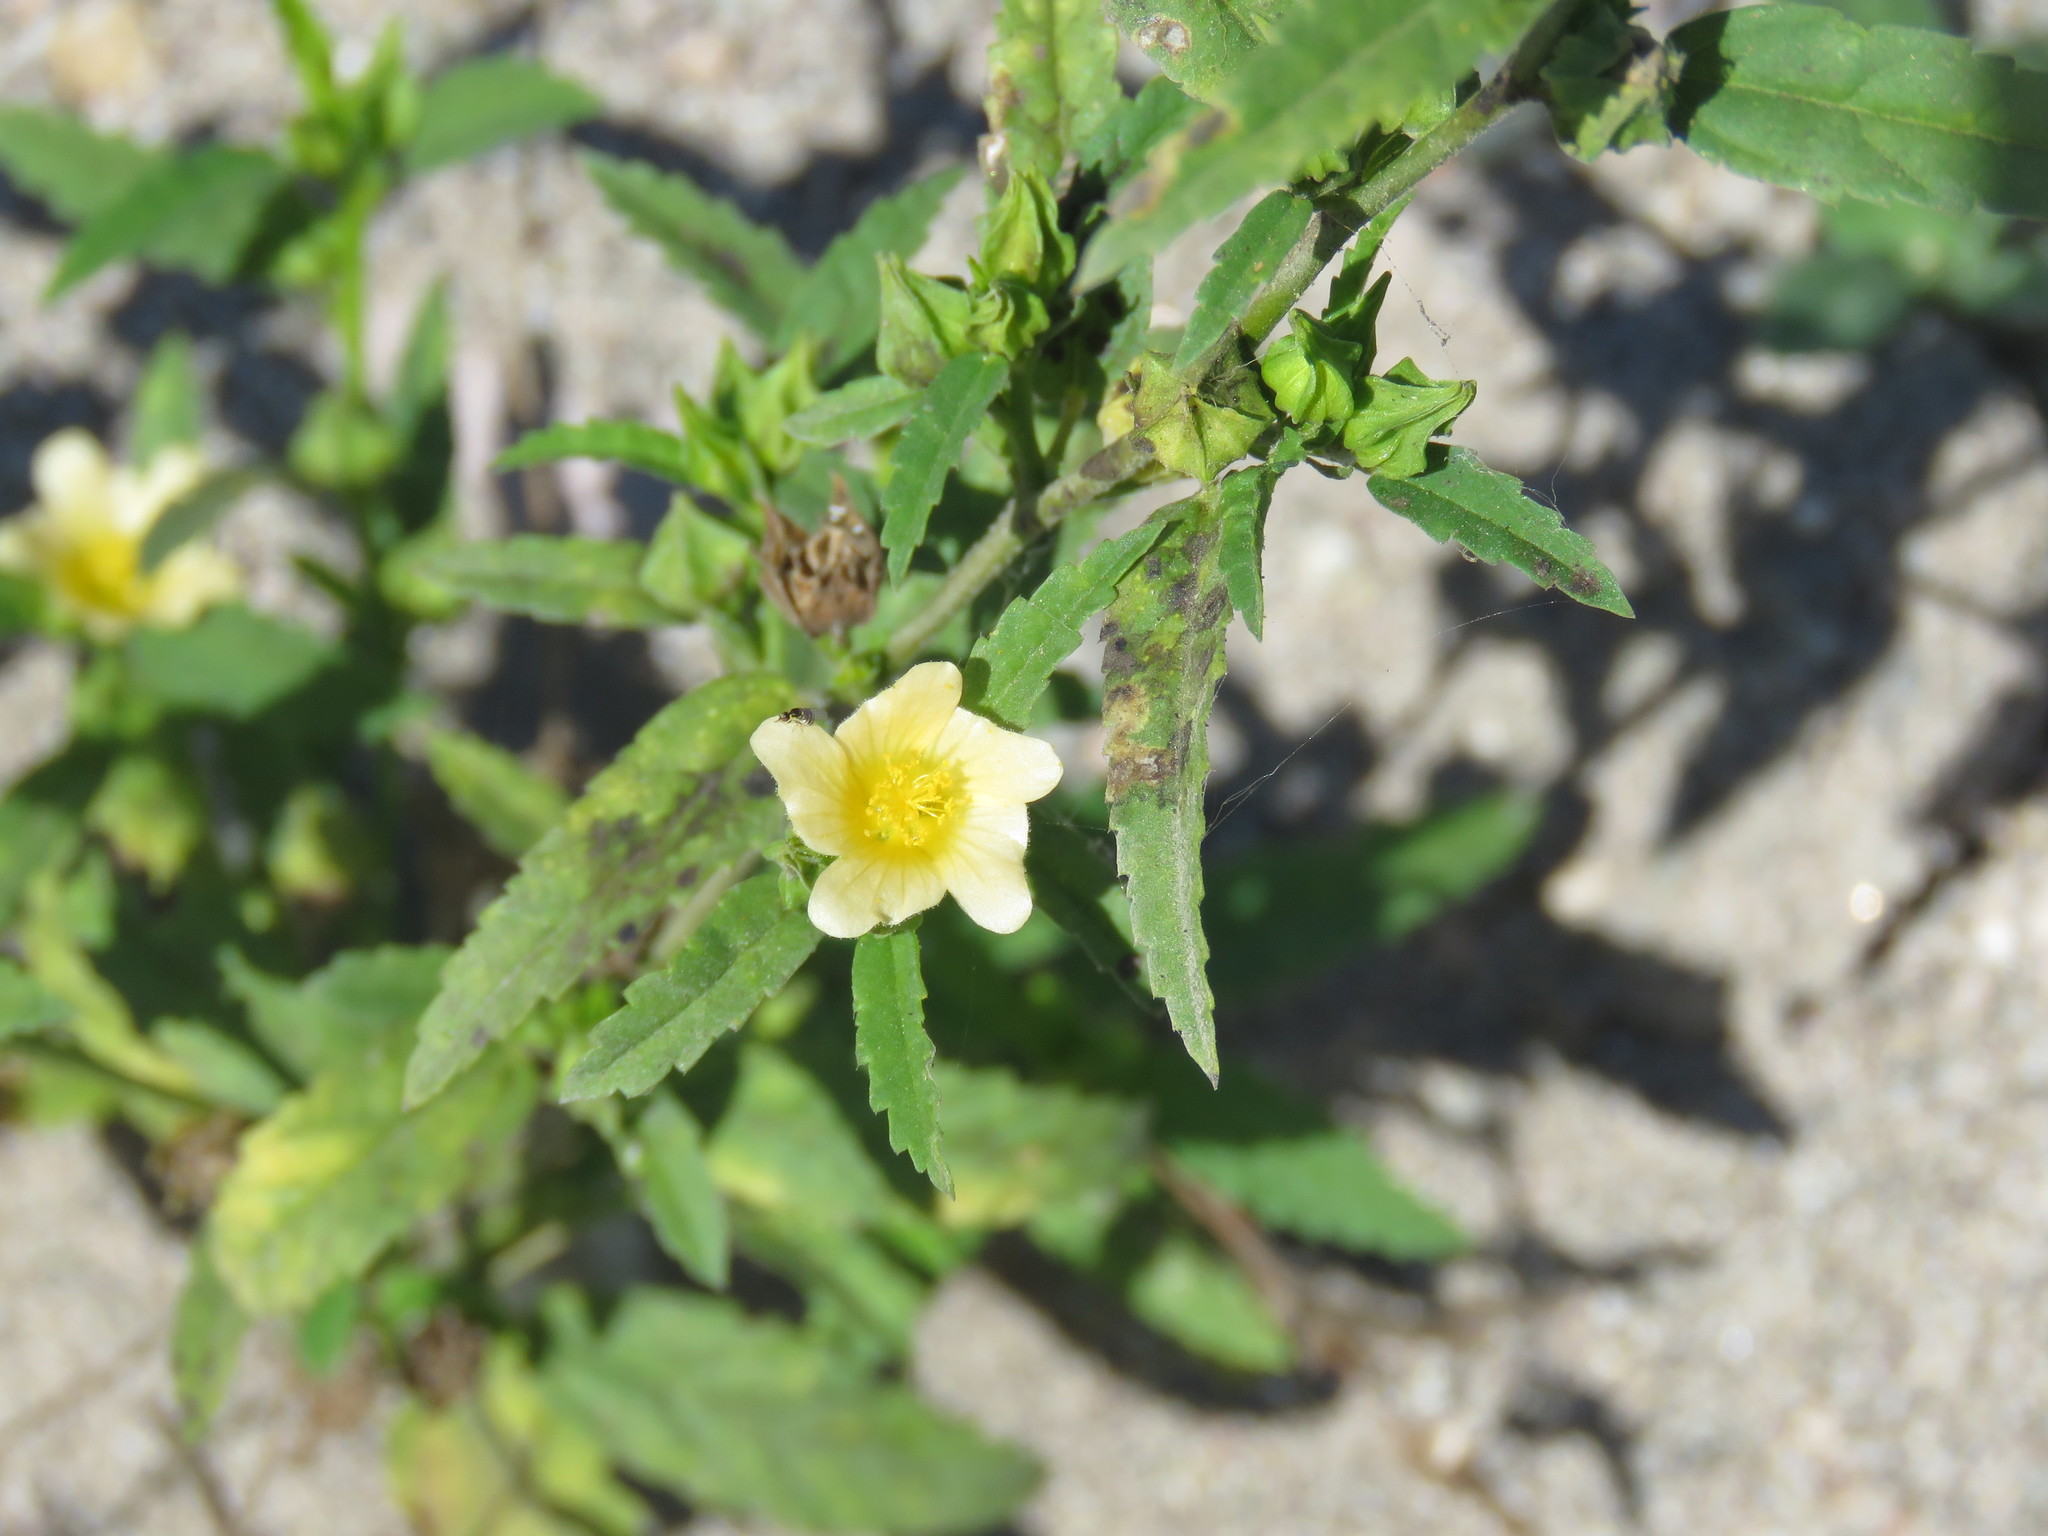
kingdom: Plantae
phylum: Tracheophyta
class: Magnoliopsida
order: Malvales
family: Malvaceae
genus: Sida
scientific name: Sida rhombifolia
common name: Queensland-hemp
